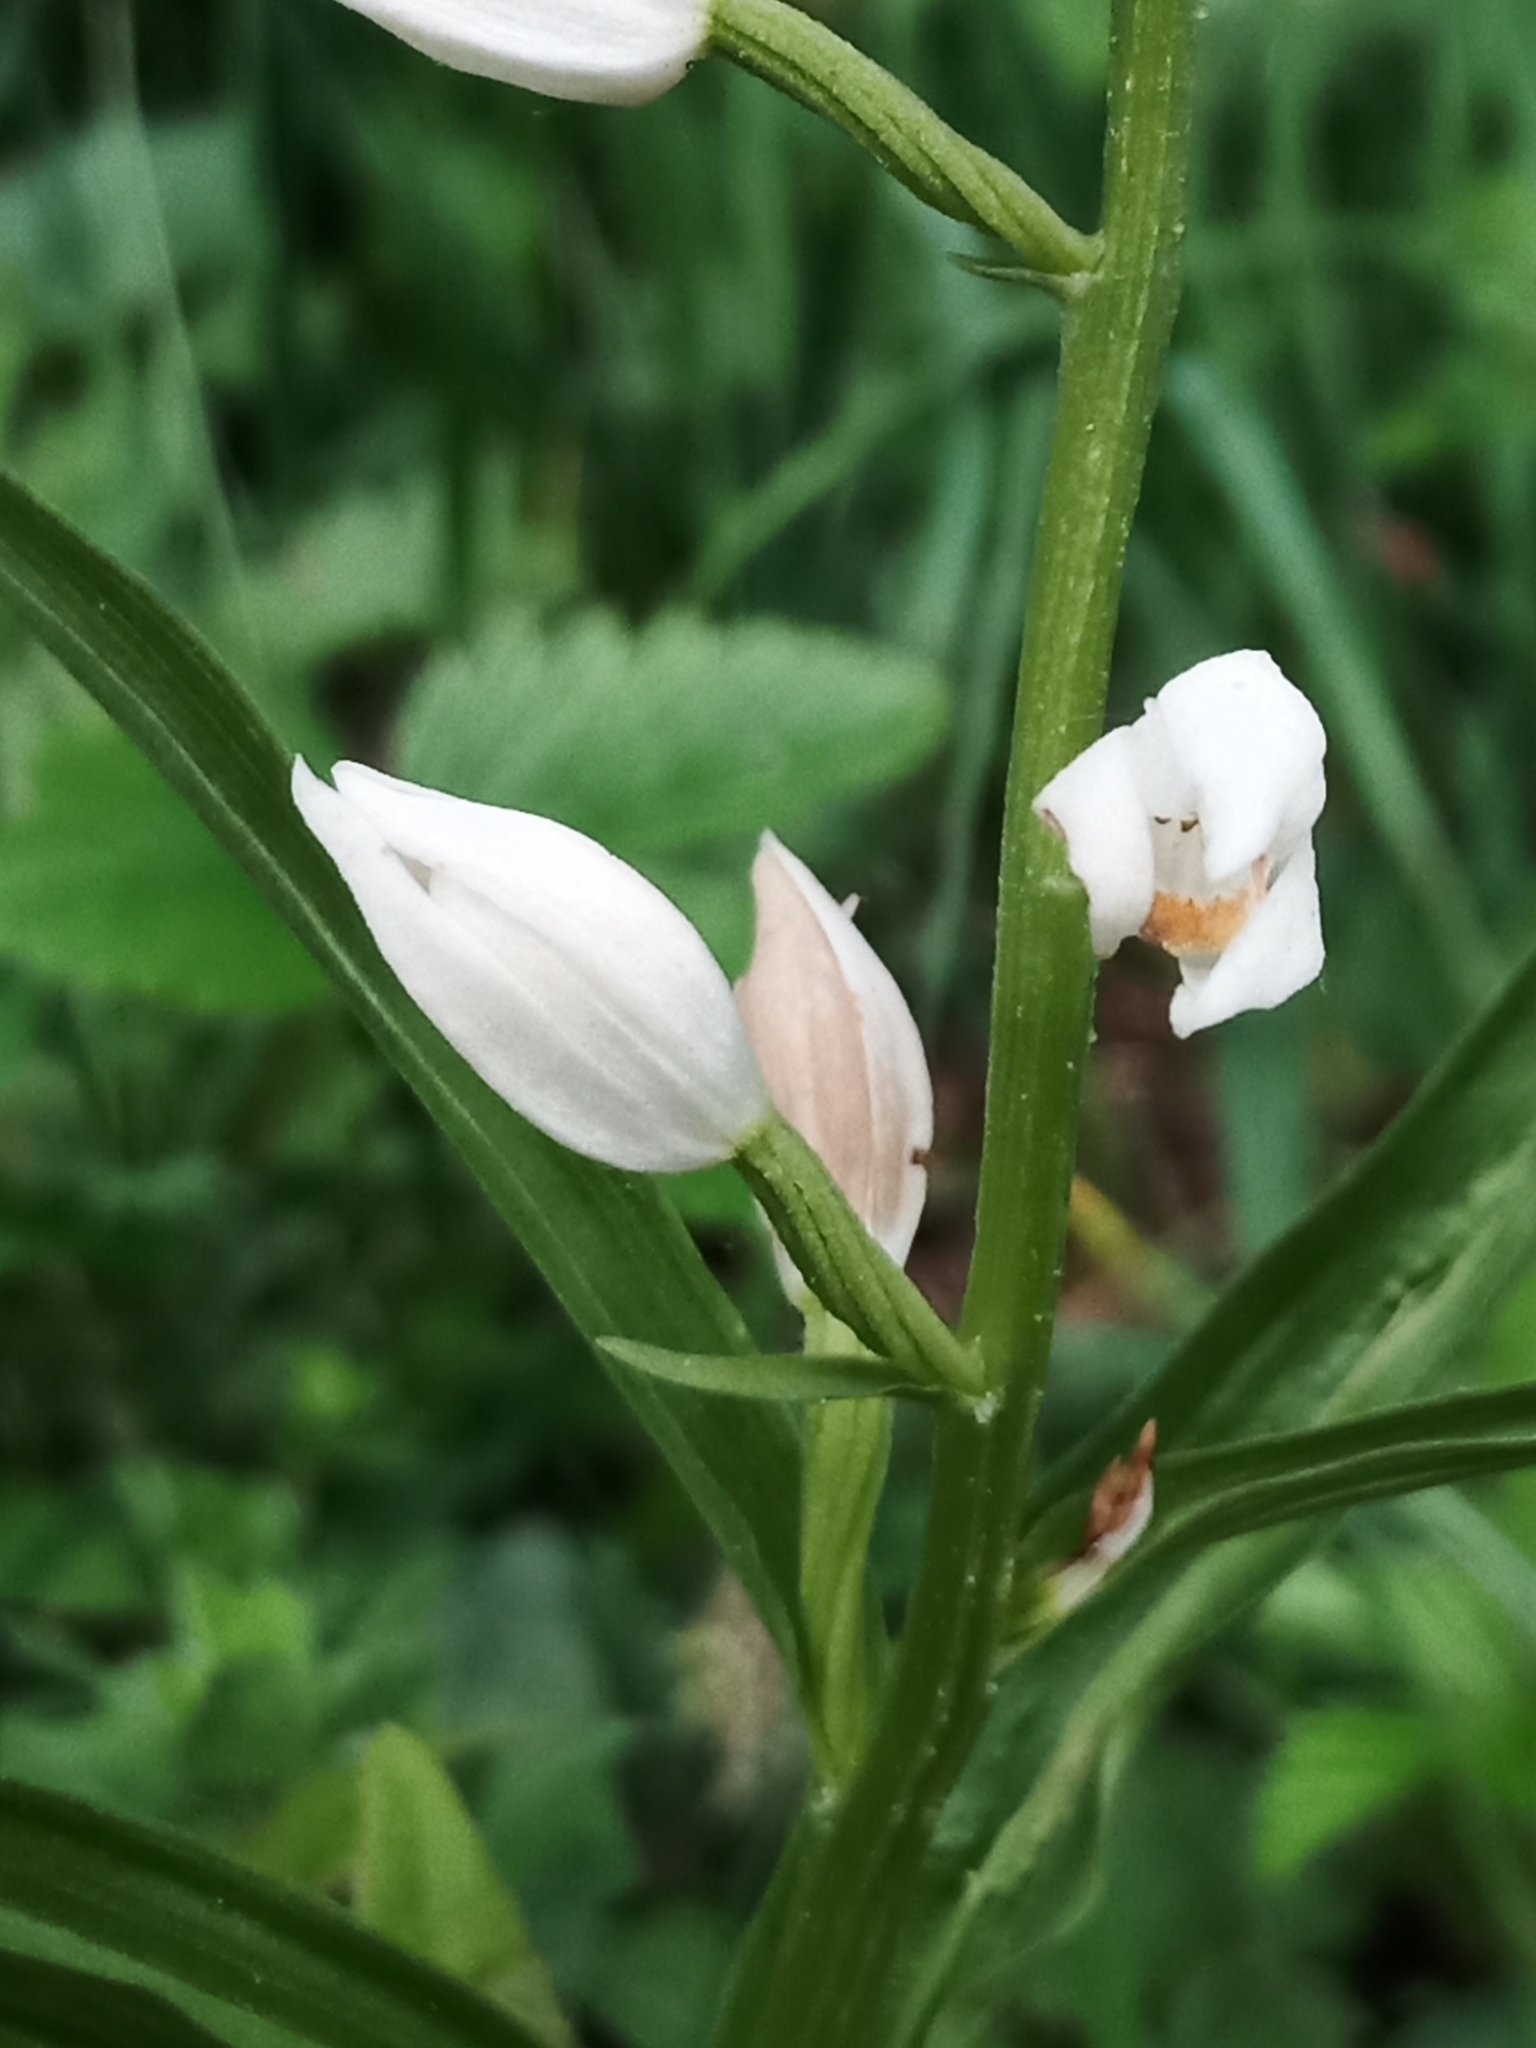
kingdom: Plantae
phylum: Tracheophyta
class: Liliopsida
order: Asparagales
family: Orchidaceae
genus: Cephalanthera
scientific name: Cephalanthera longifolia
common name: Narrow-leaved helleborine
